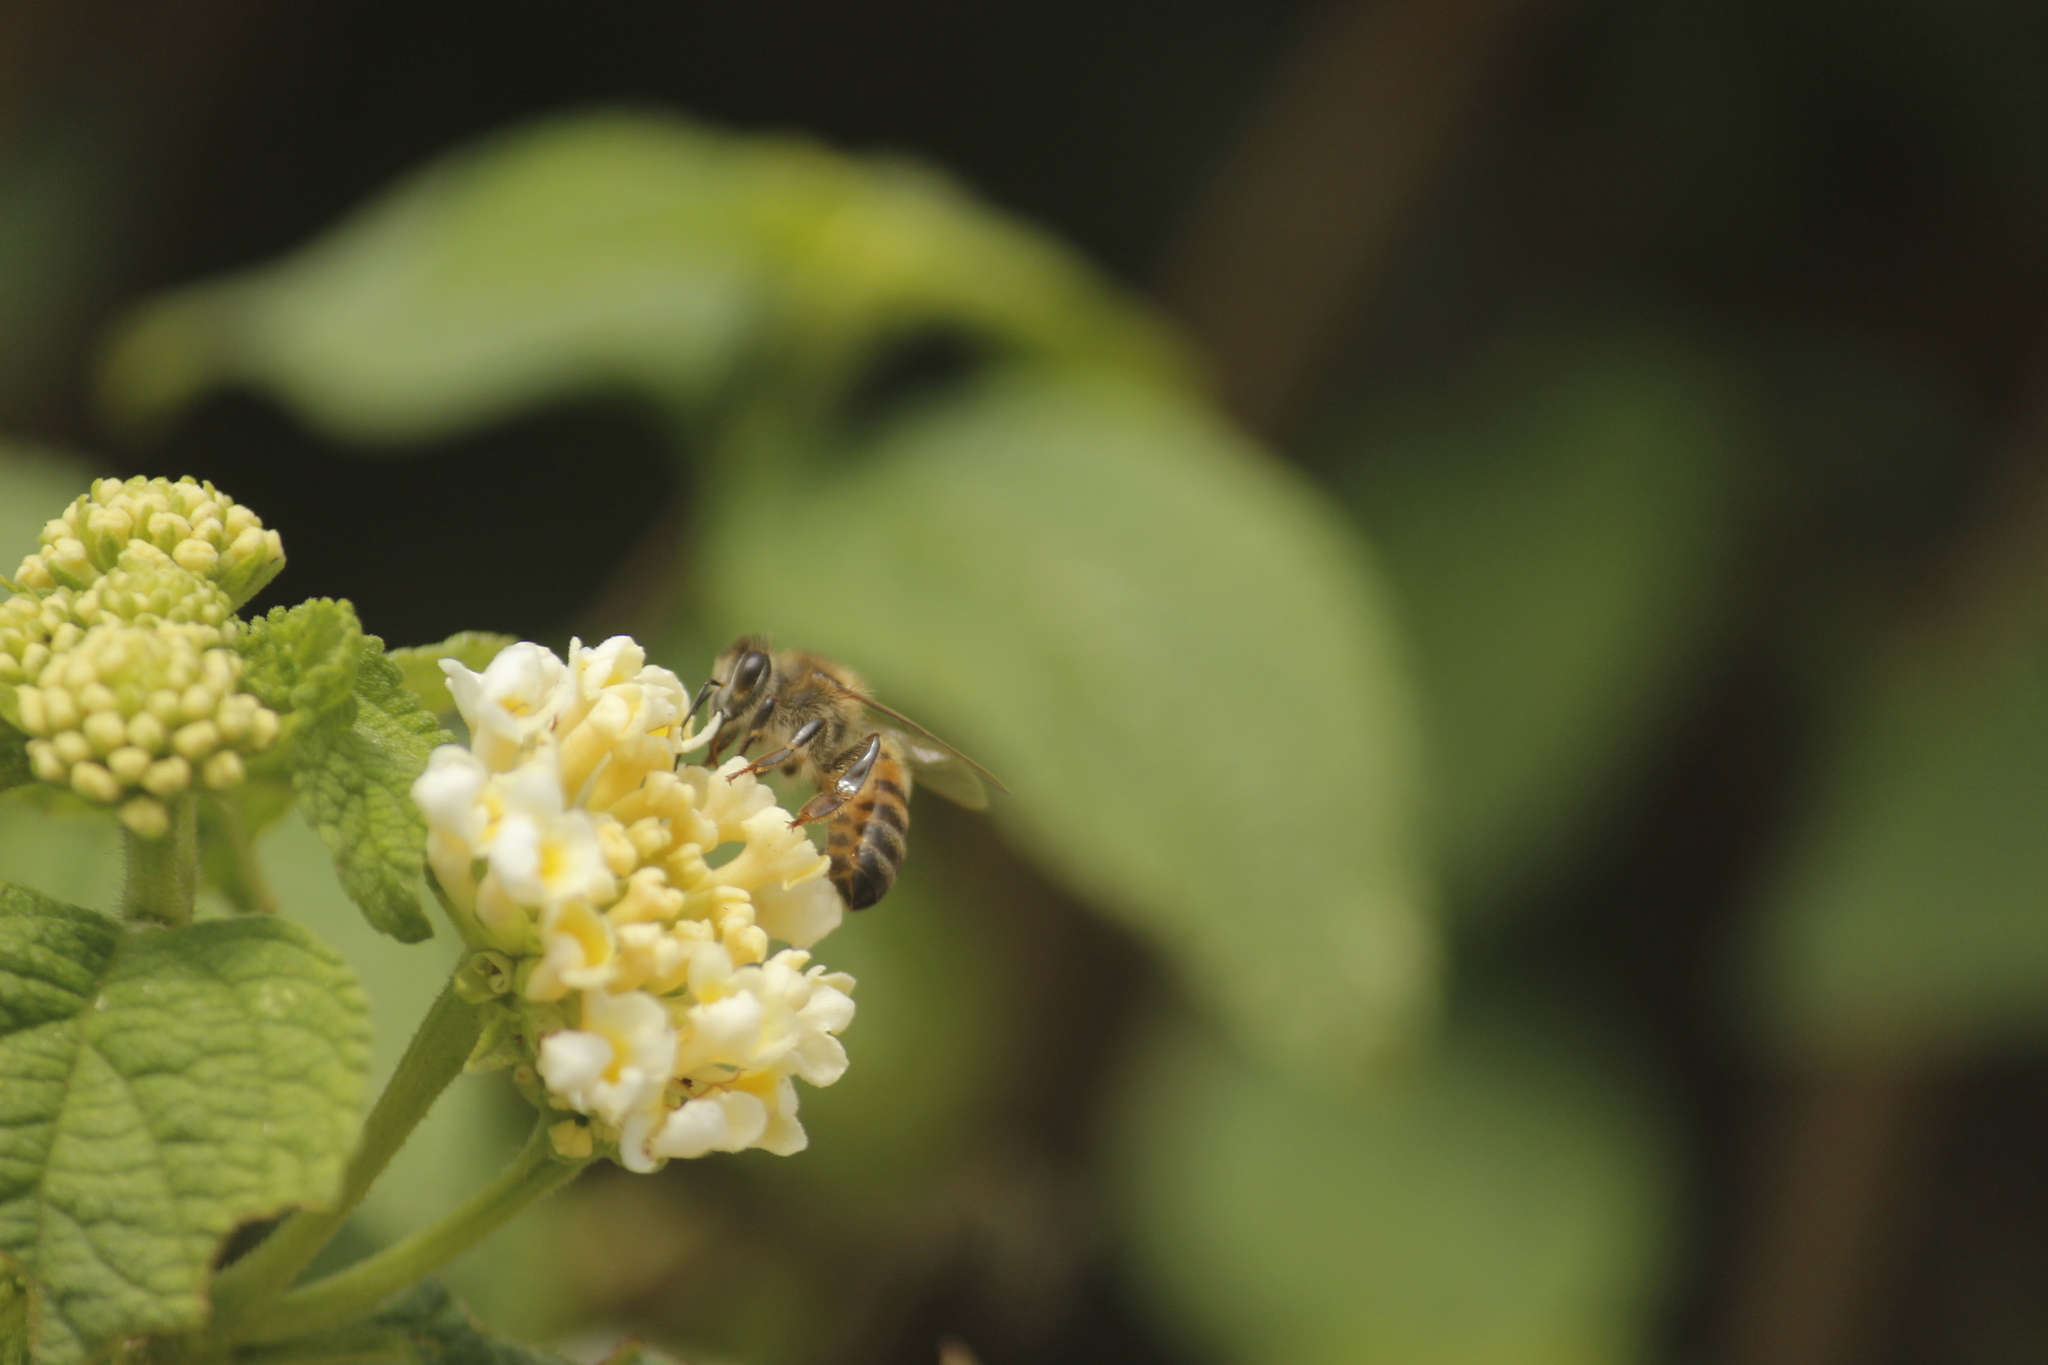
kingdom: Animalia
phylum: Arthropoda
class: Insecta
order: Hymenoptera
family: Apidae
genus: Apis
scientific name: Apis mellifera
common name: Honey bee
